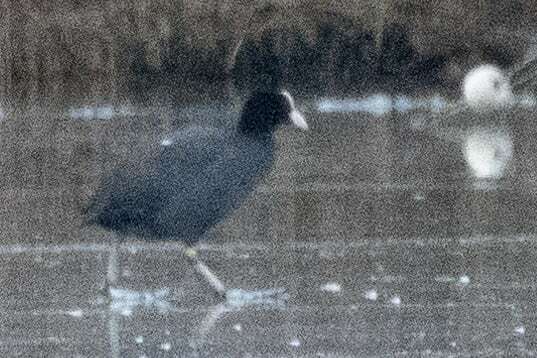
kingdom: Animalia
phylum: Chordata
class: Aves
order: Gruiformes
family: Rallidae
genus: Fulica
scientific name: Fulica atra
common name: Eurasian coot
